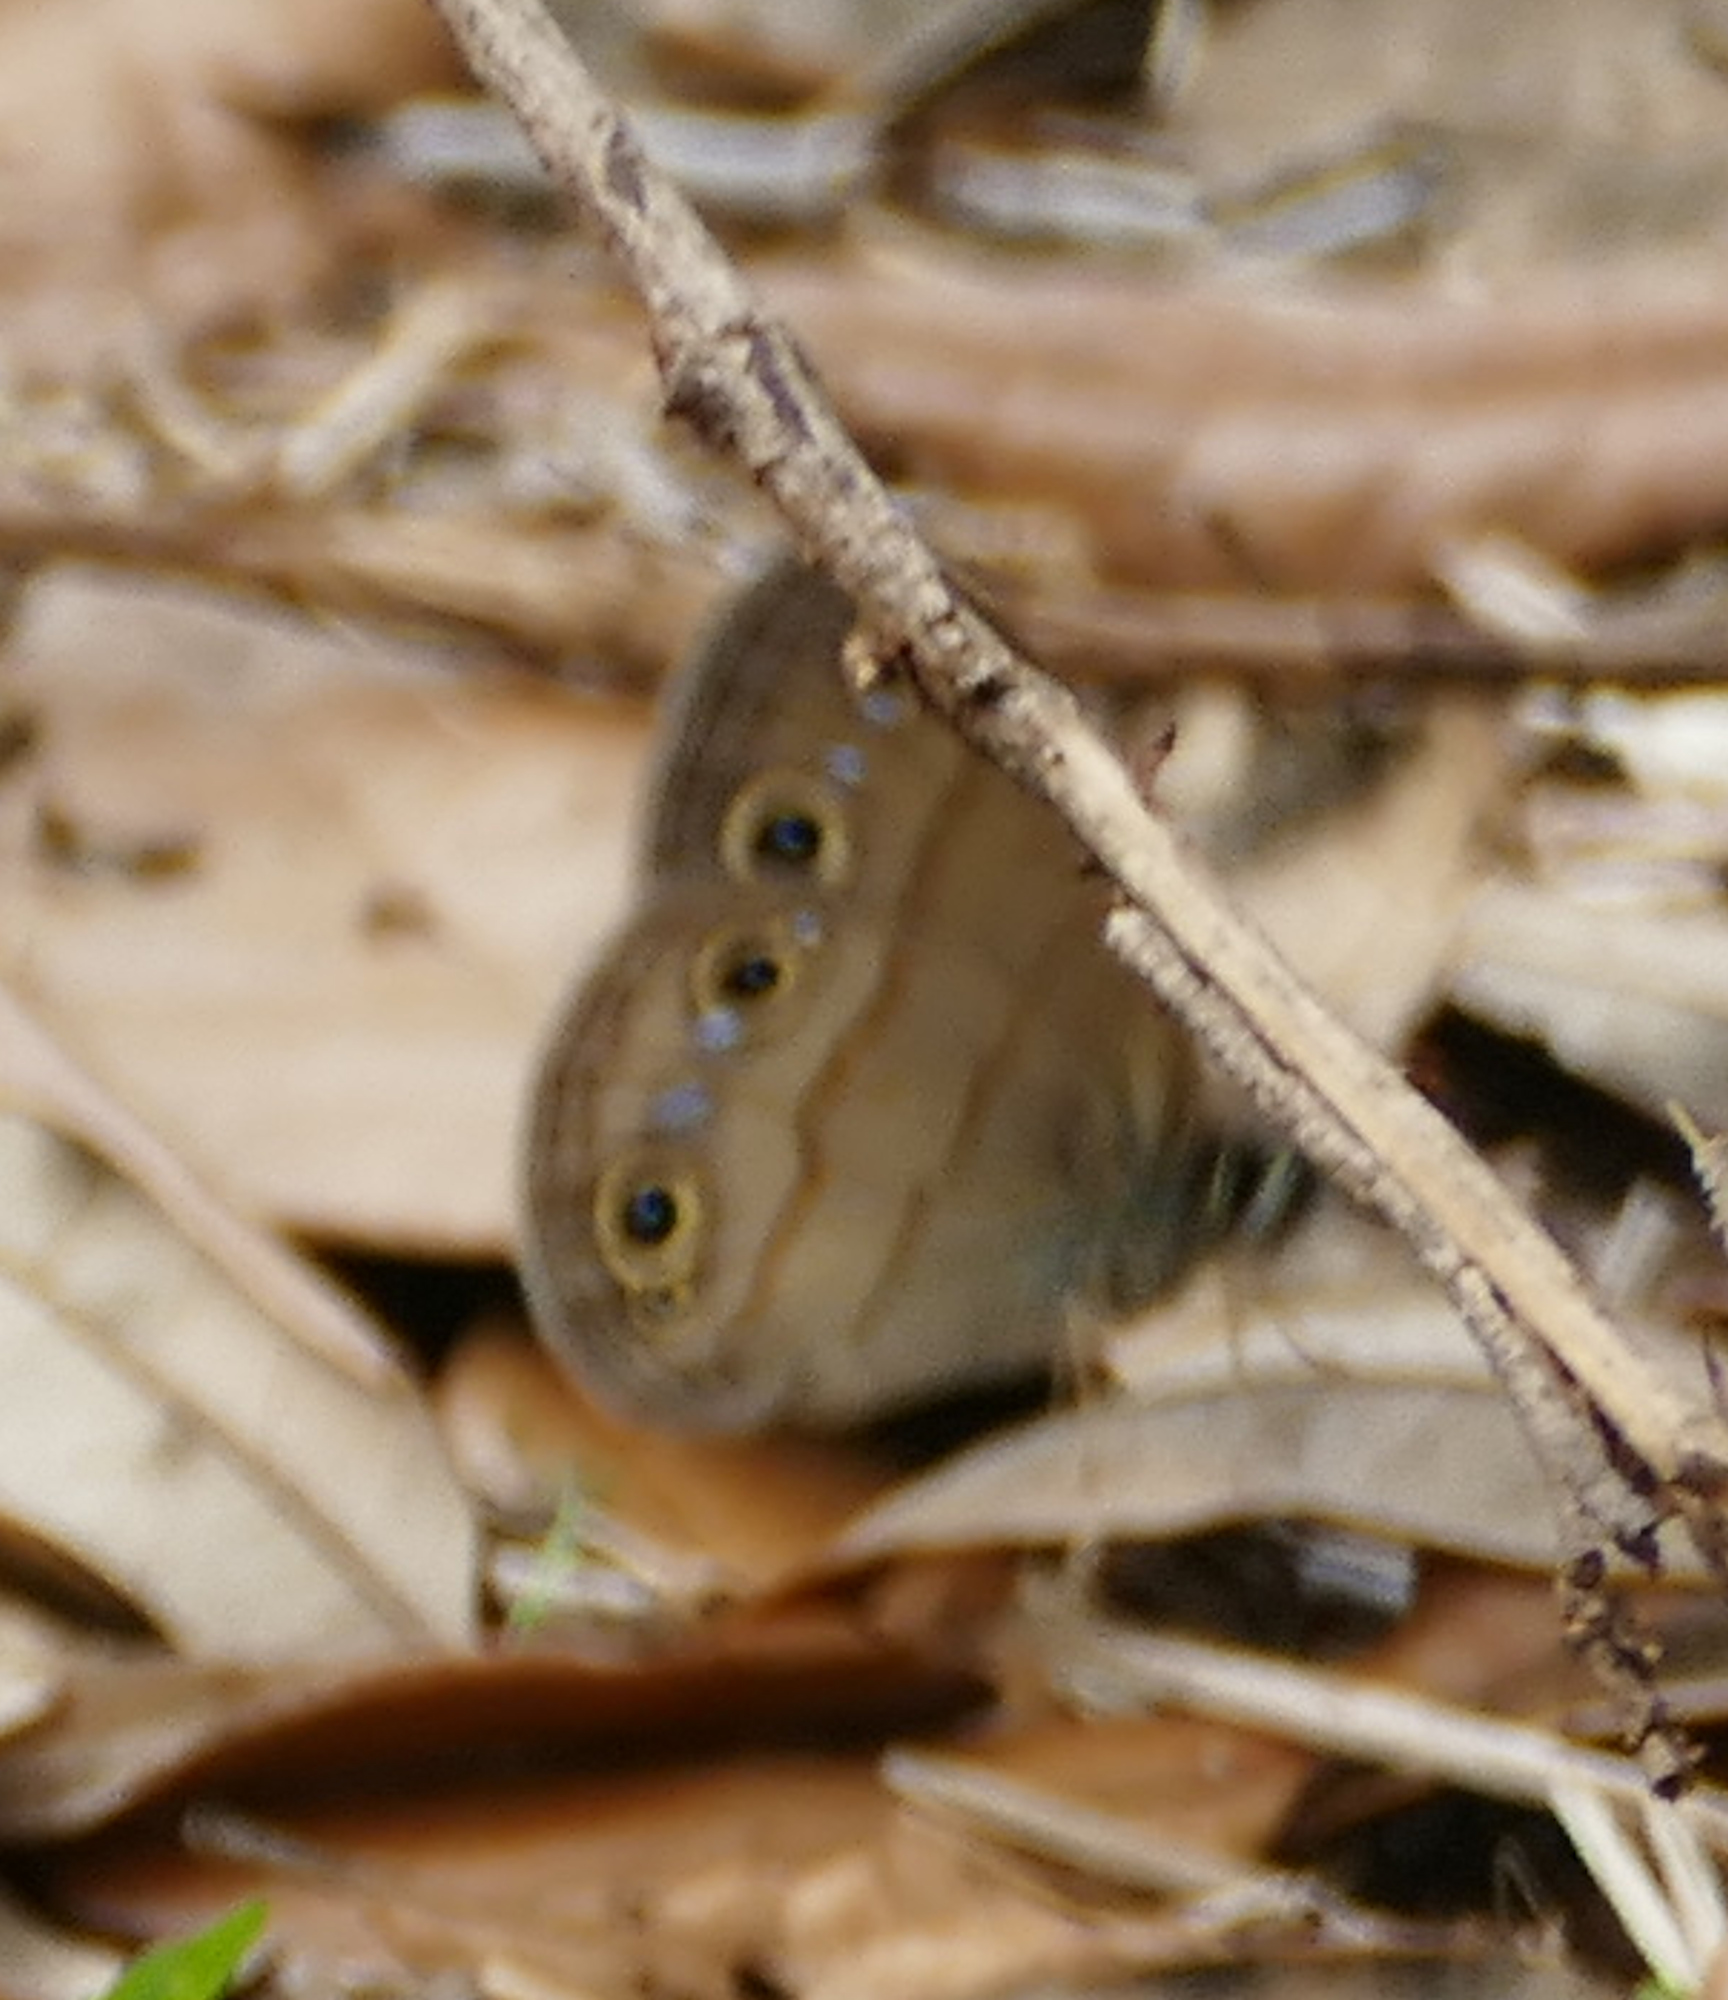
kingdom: Animalia
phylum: Arthropoda
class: Insecta
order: Lepidoptera
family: Nymphalidae
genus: Euptychia
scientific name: Euptychia cymela
